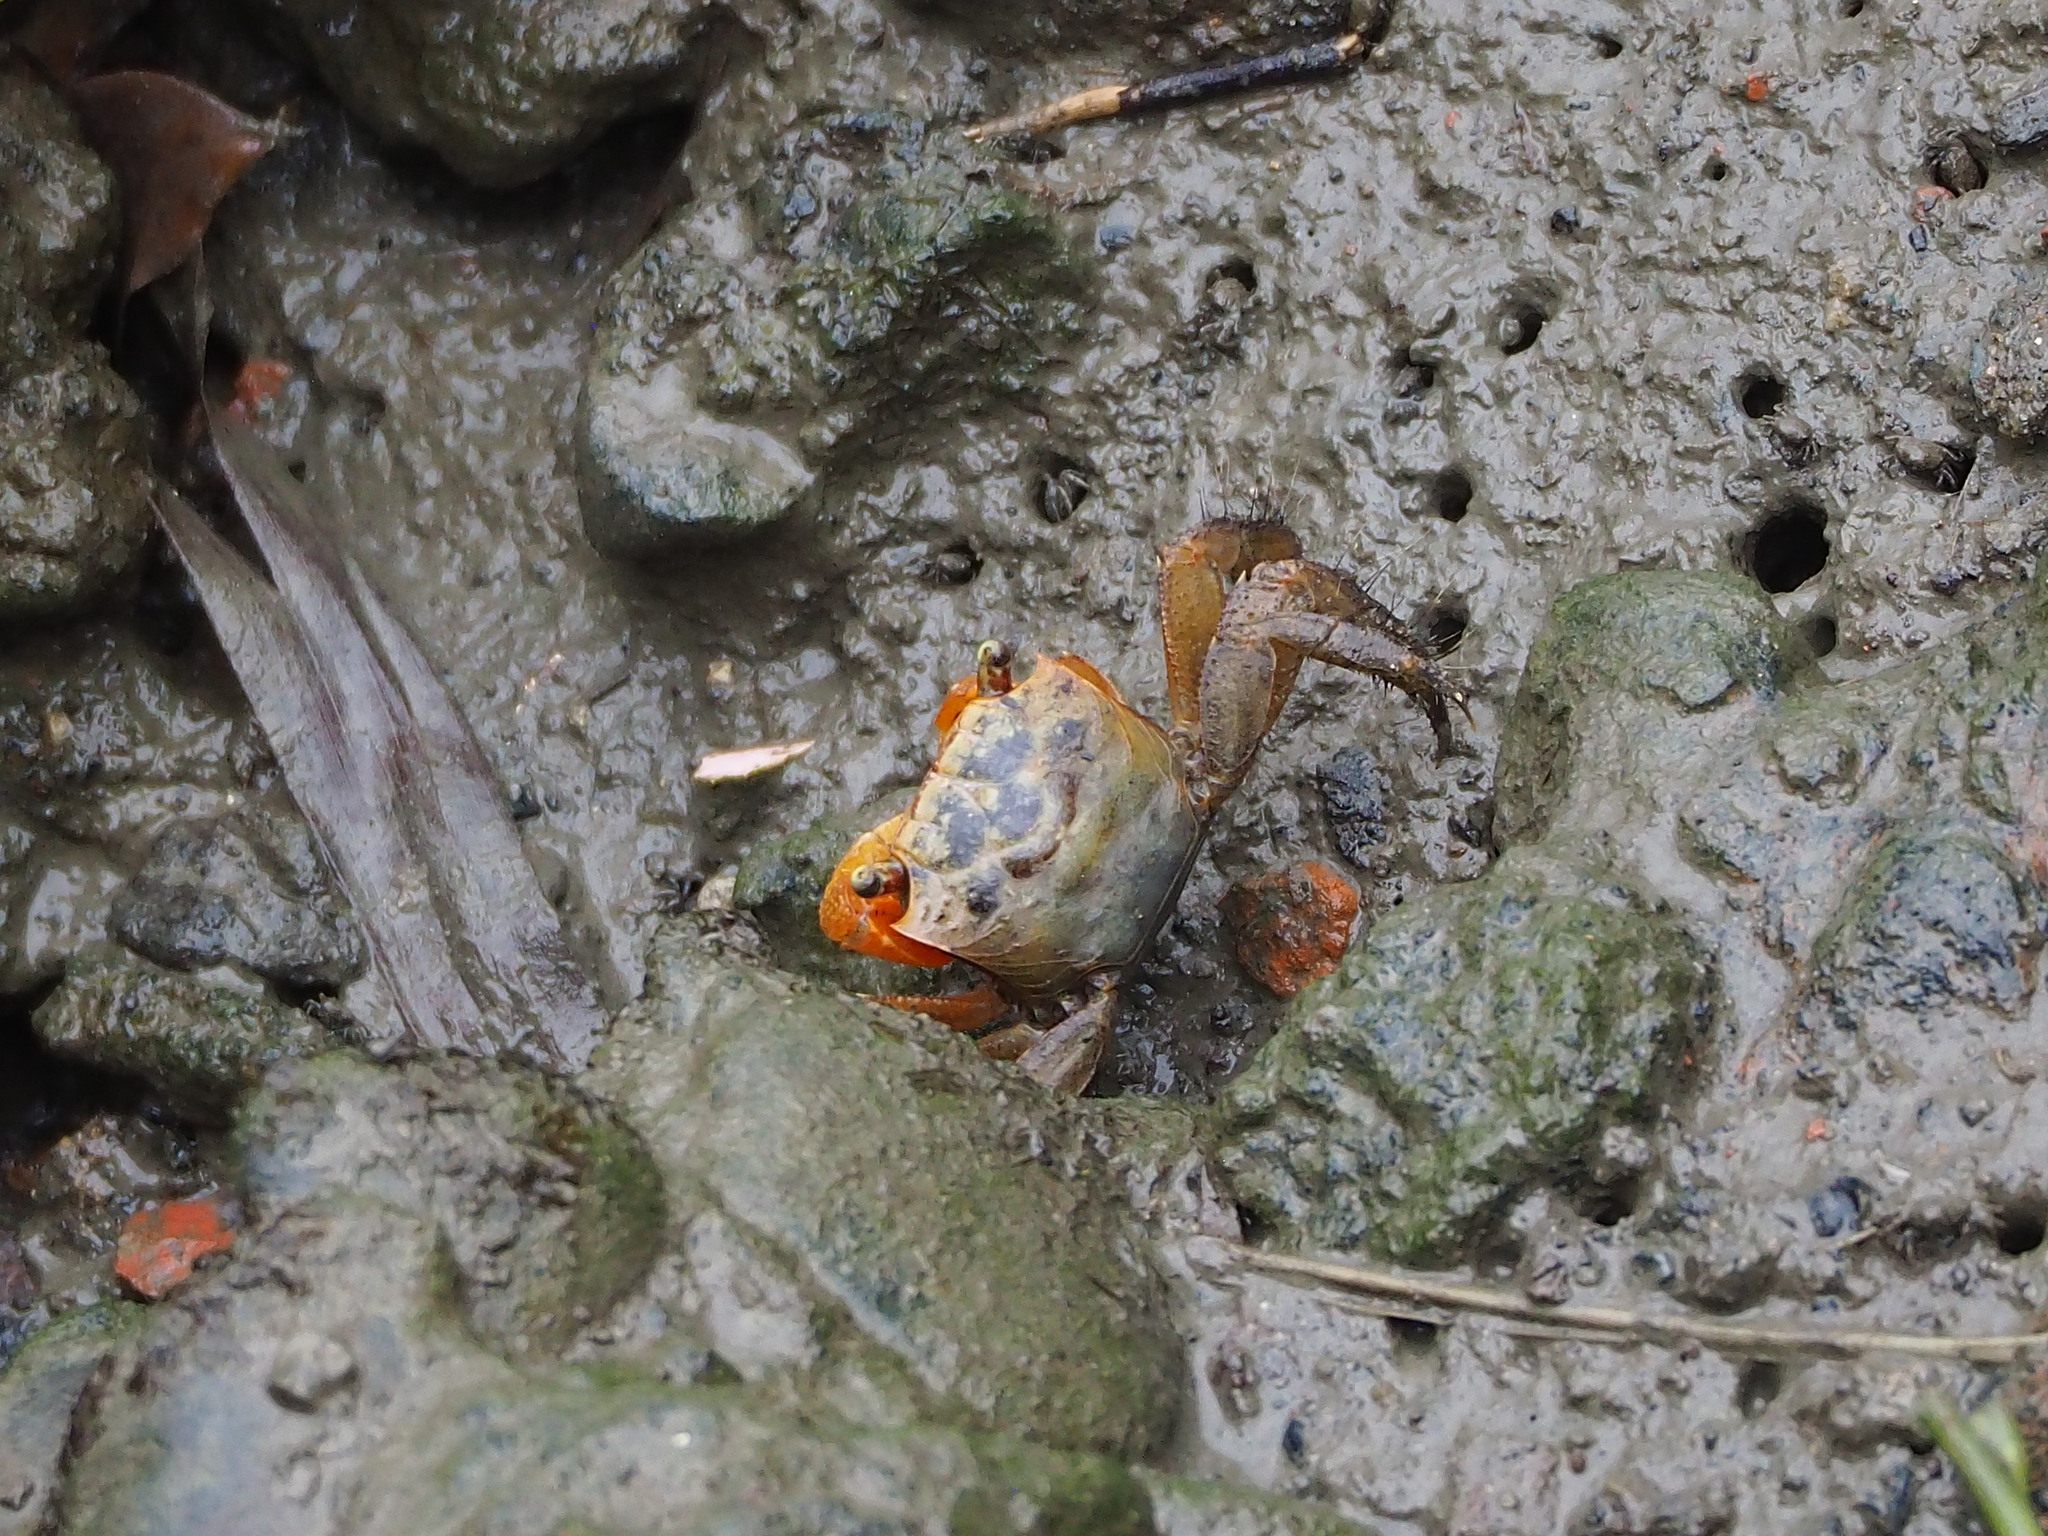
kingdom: Animalia
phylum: Arthropoda
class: Malacostraca
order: Decapoda
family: Sesarmidae
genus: Orisarma
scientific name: Orisarma dehaani
